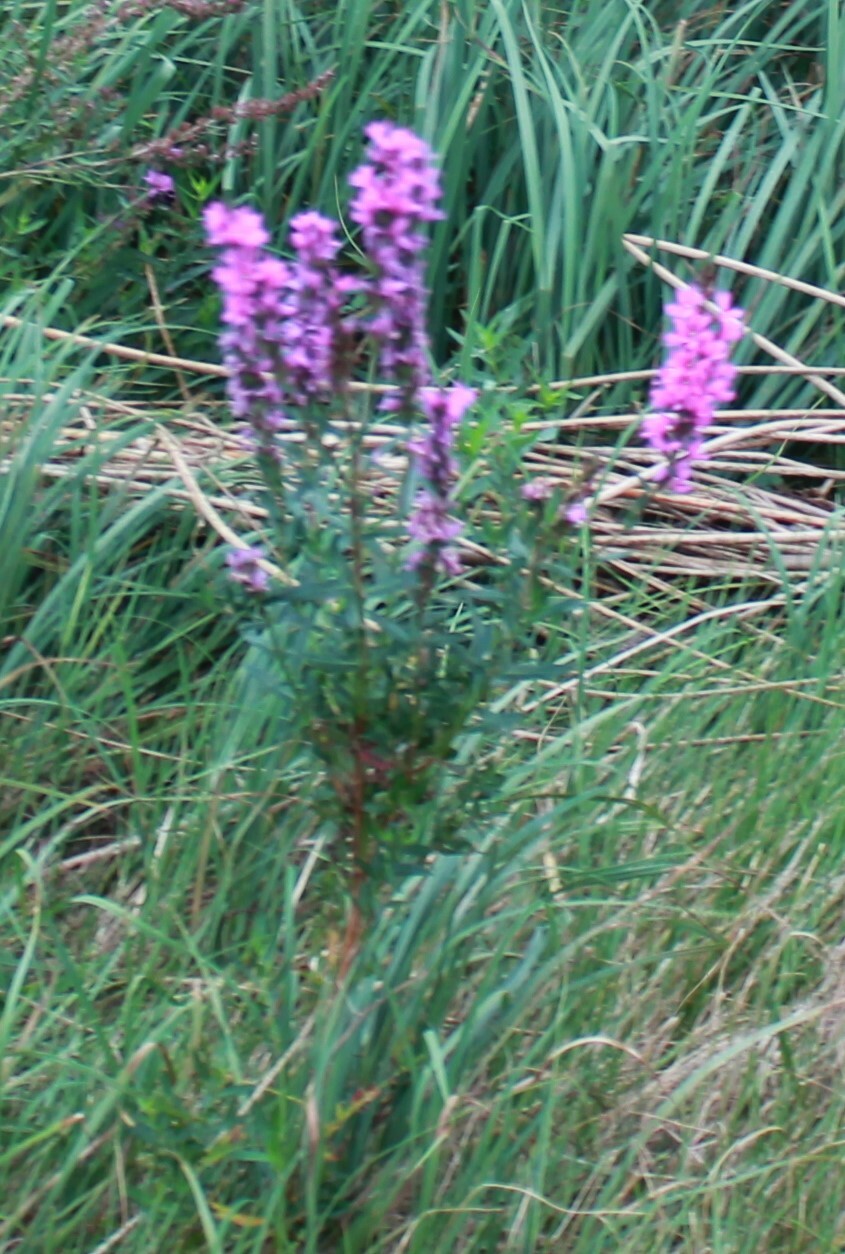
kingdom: Plantae
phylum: Tracheophyta
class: Magnoliopsida
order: Myrtales
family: Lythraceae
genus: Lythrum
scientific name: Lythrum salicaria
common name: Purple loosestrife
